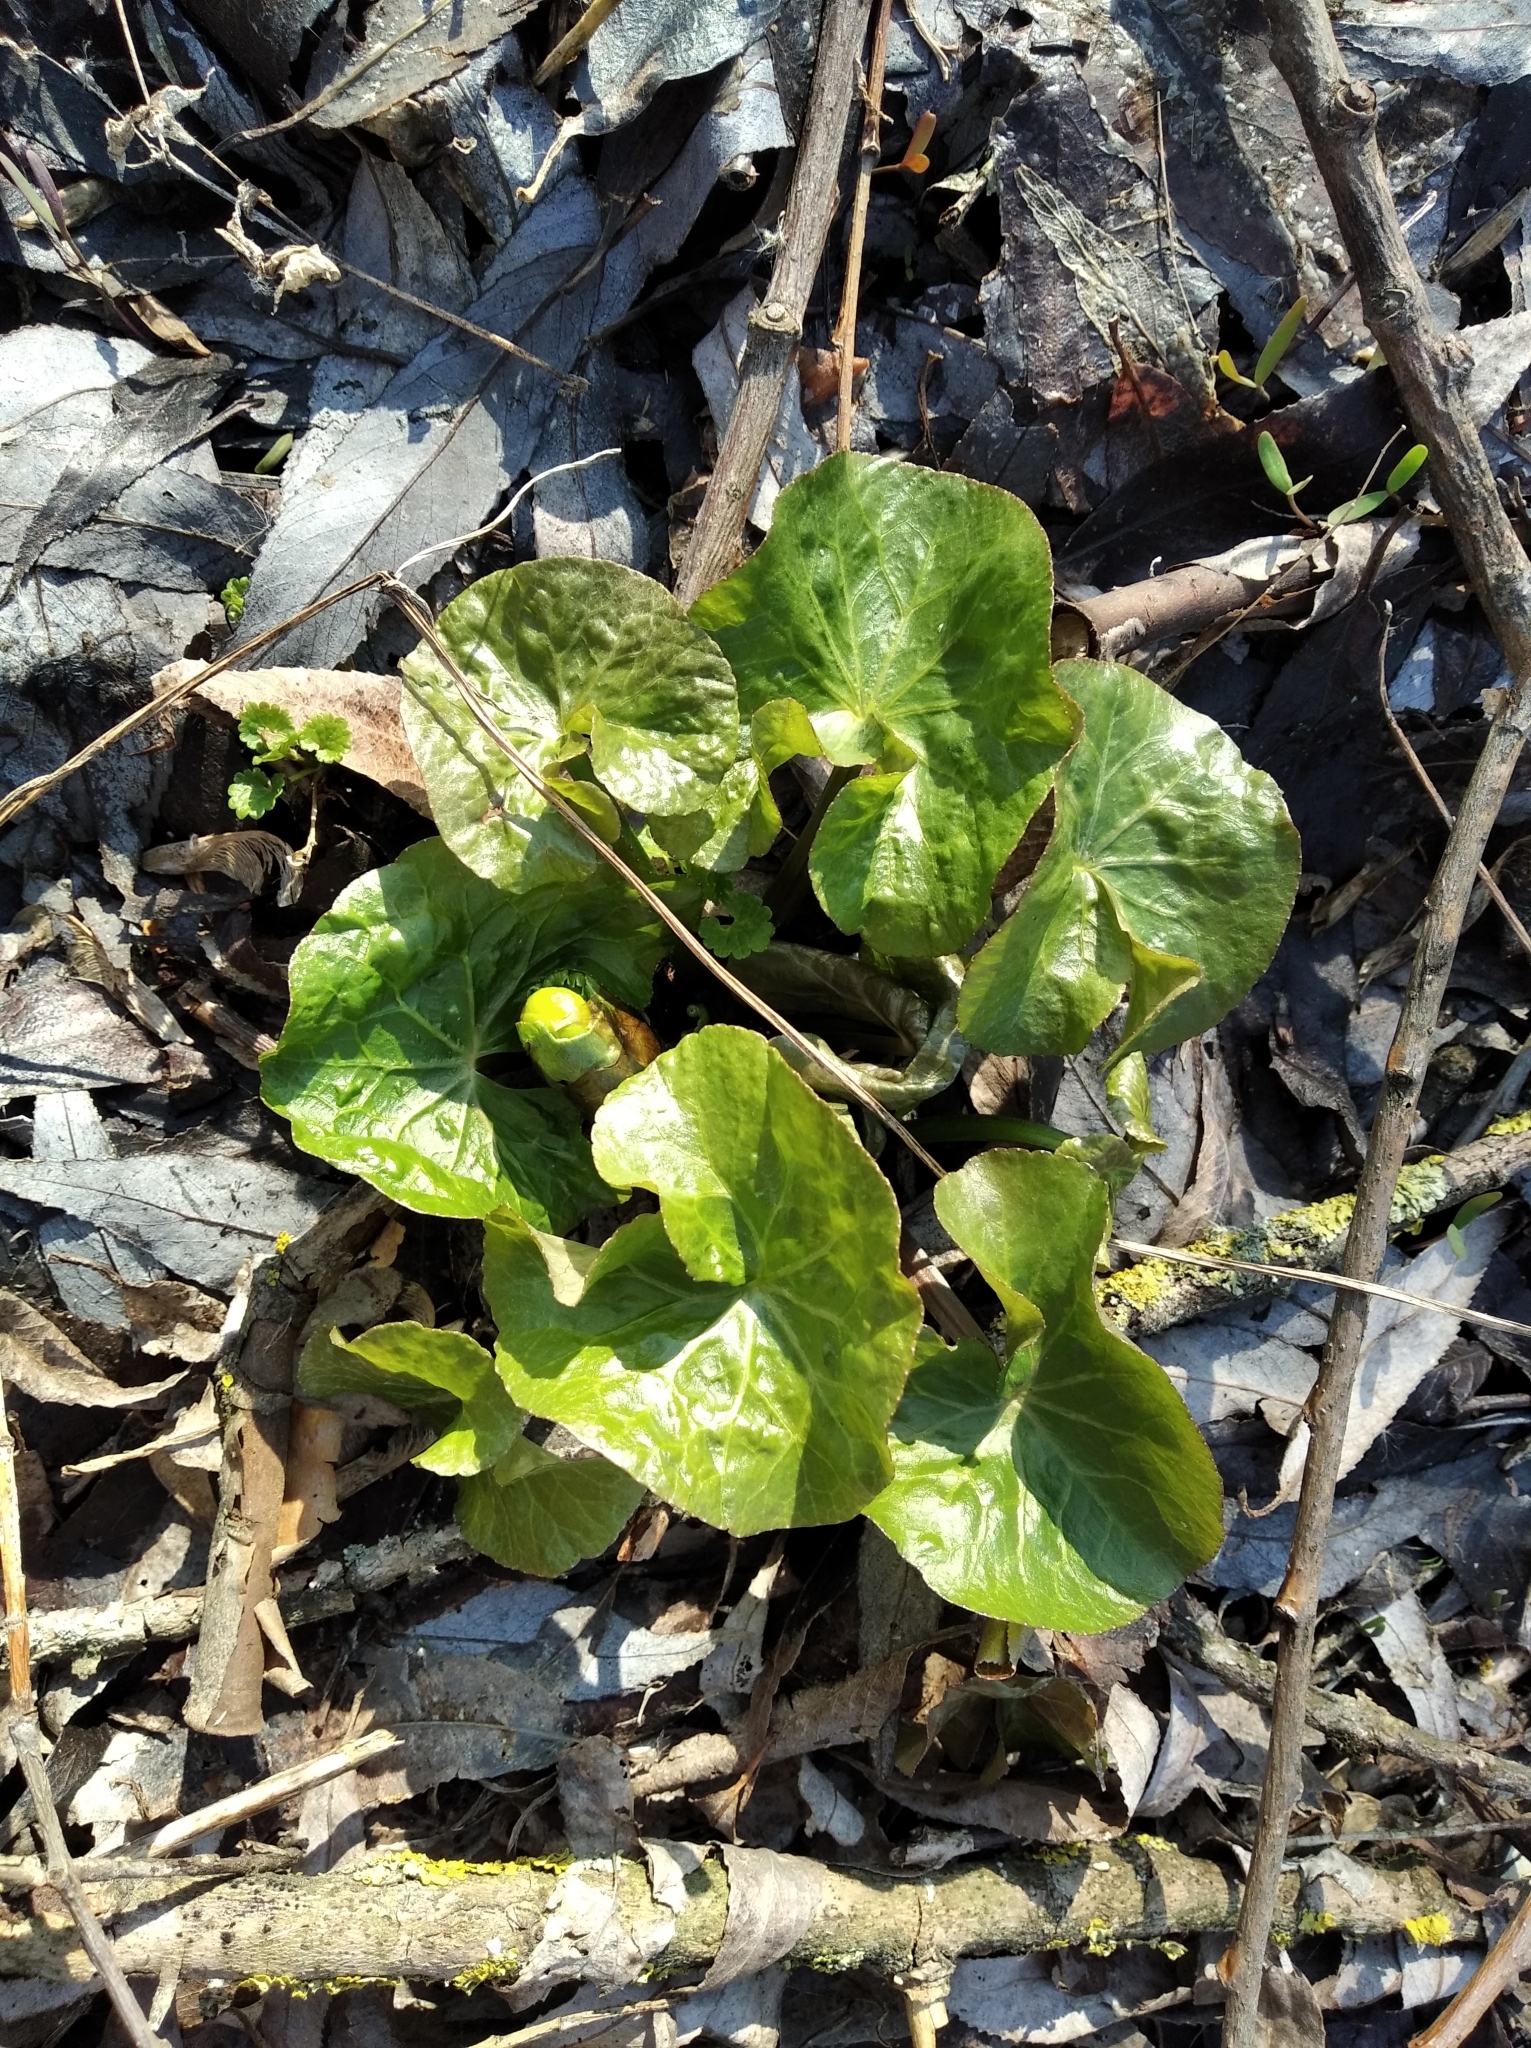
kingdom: Plantae
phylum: Tracheophyta
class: Magnoliopsida
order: Ranunculales
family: Ranunculaceae
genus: Caltha
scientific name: Caltha palustris
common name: Marsh marigold
